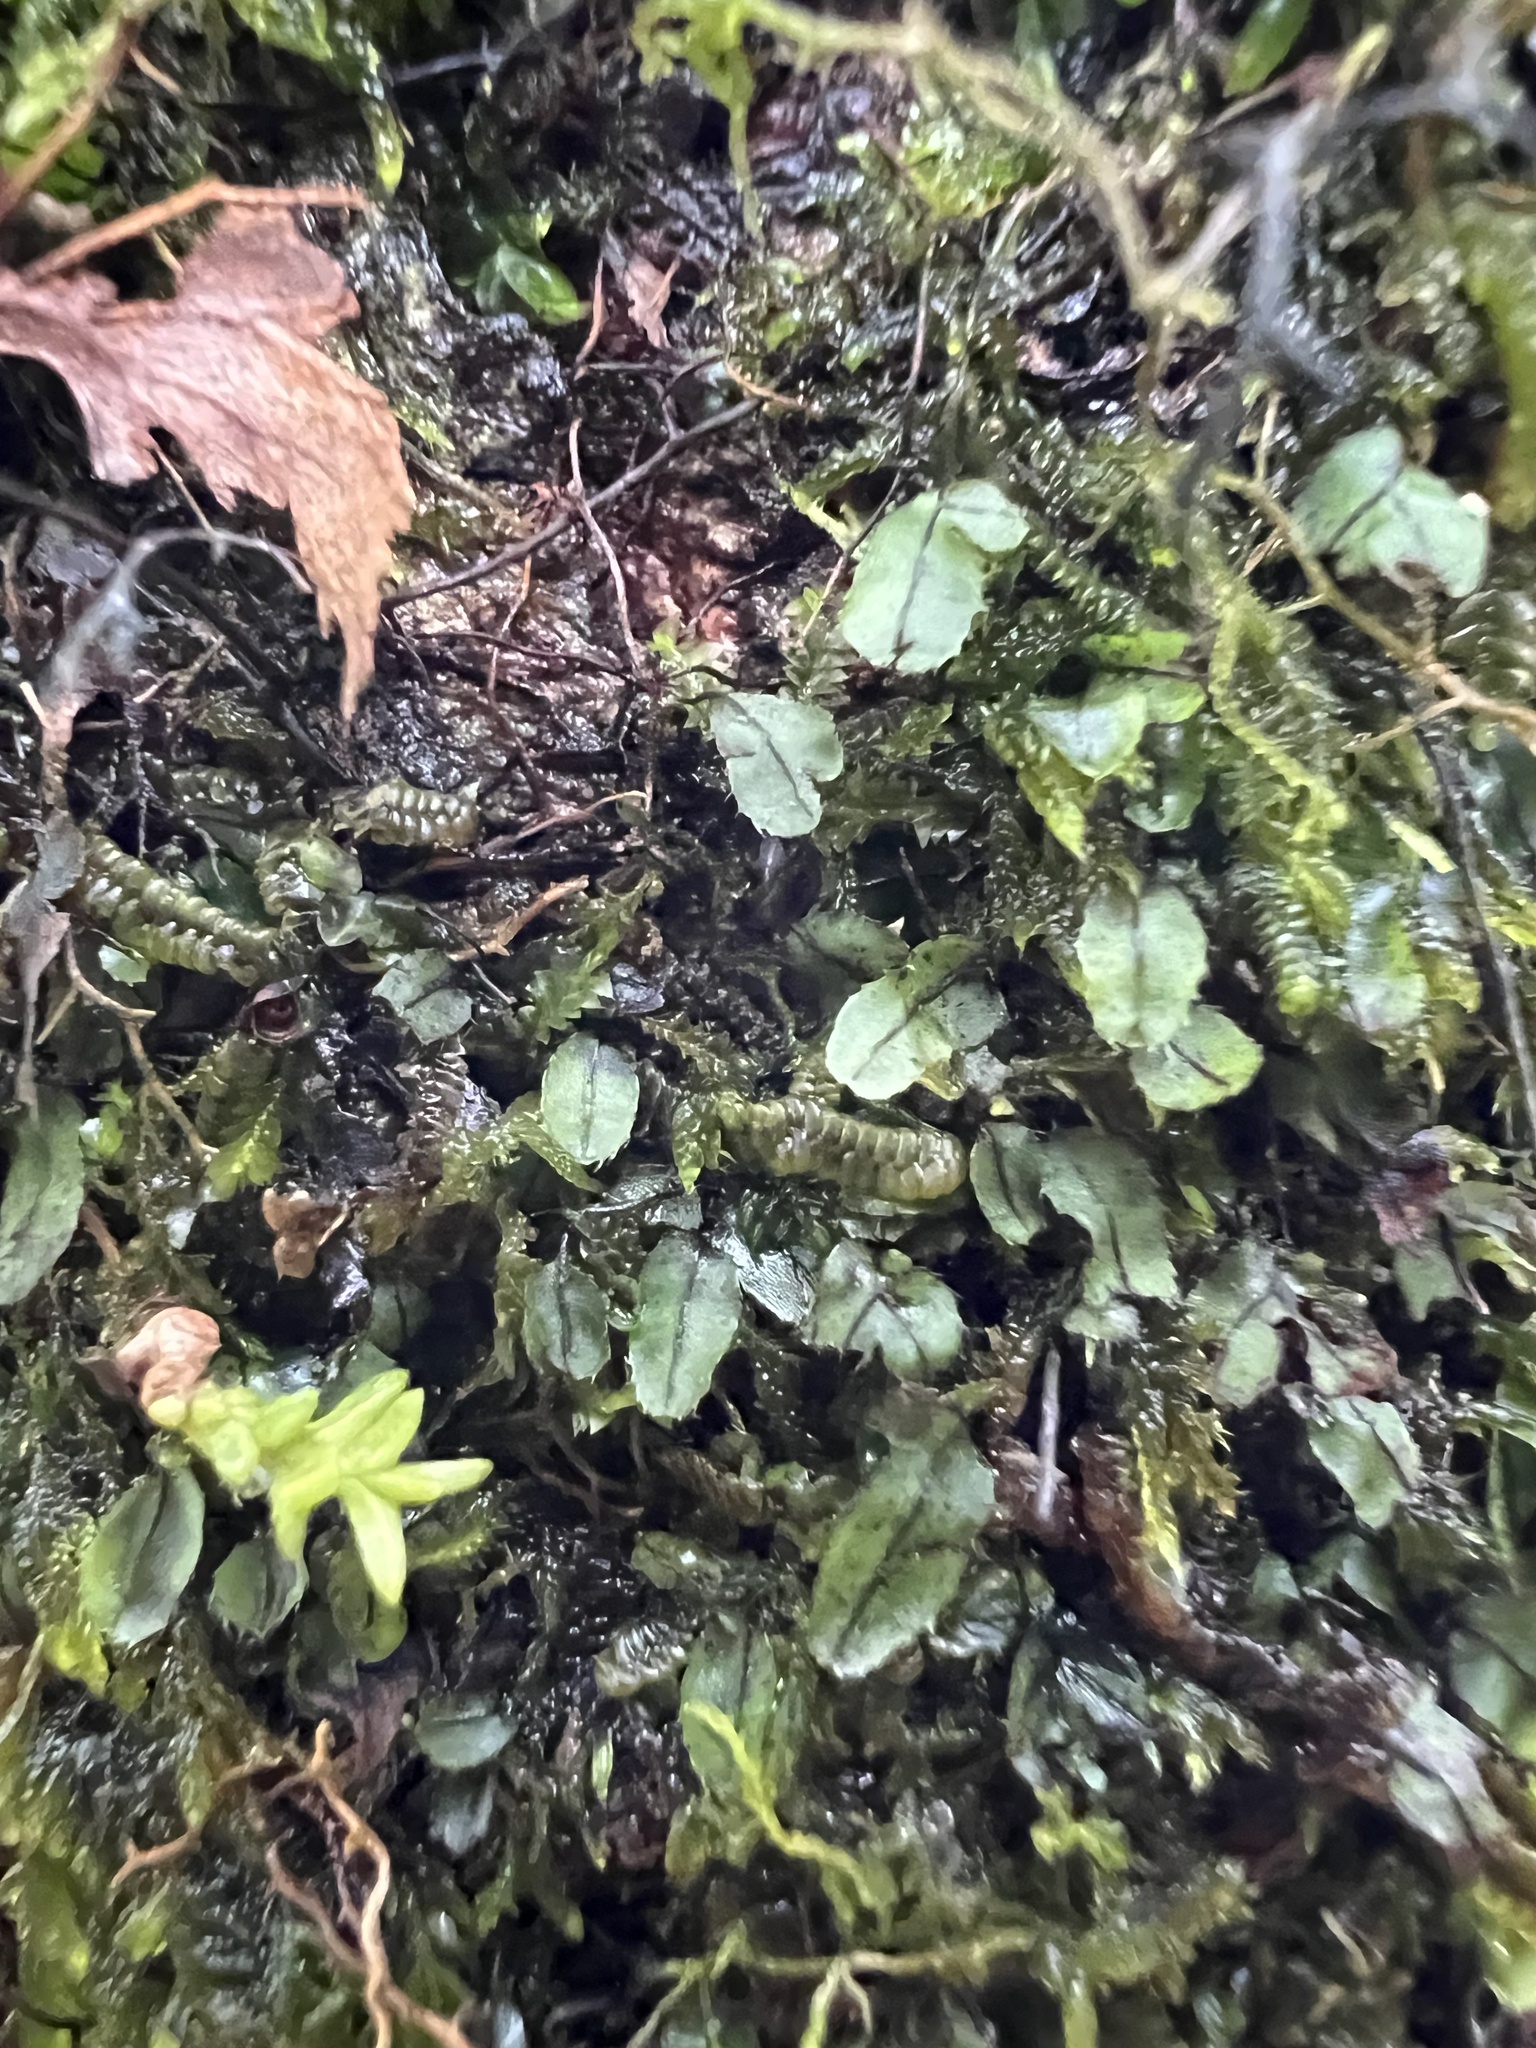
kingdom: Plantae
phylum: Tracheophyta
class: Polypodiopsida
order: Hymenophyllales
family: Hymenophyllaceae
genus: Hymenophyllum
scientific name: Hymenophyllum armstrongii
